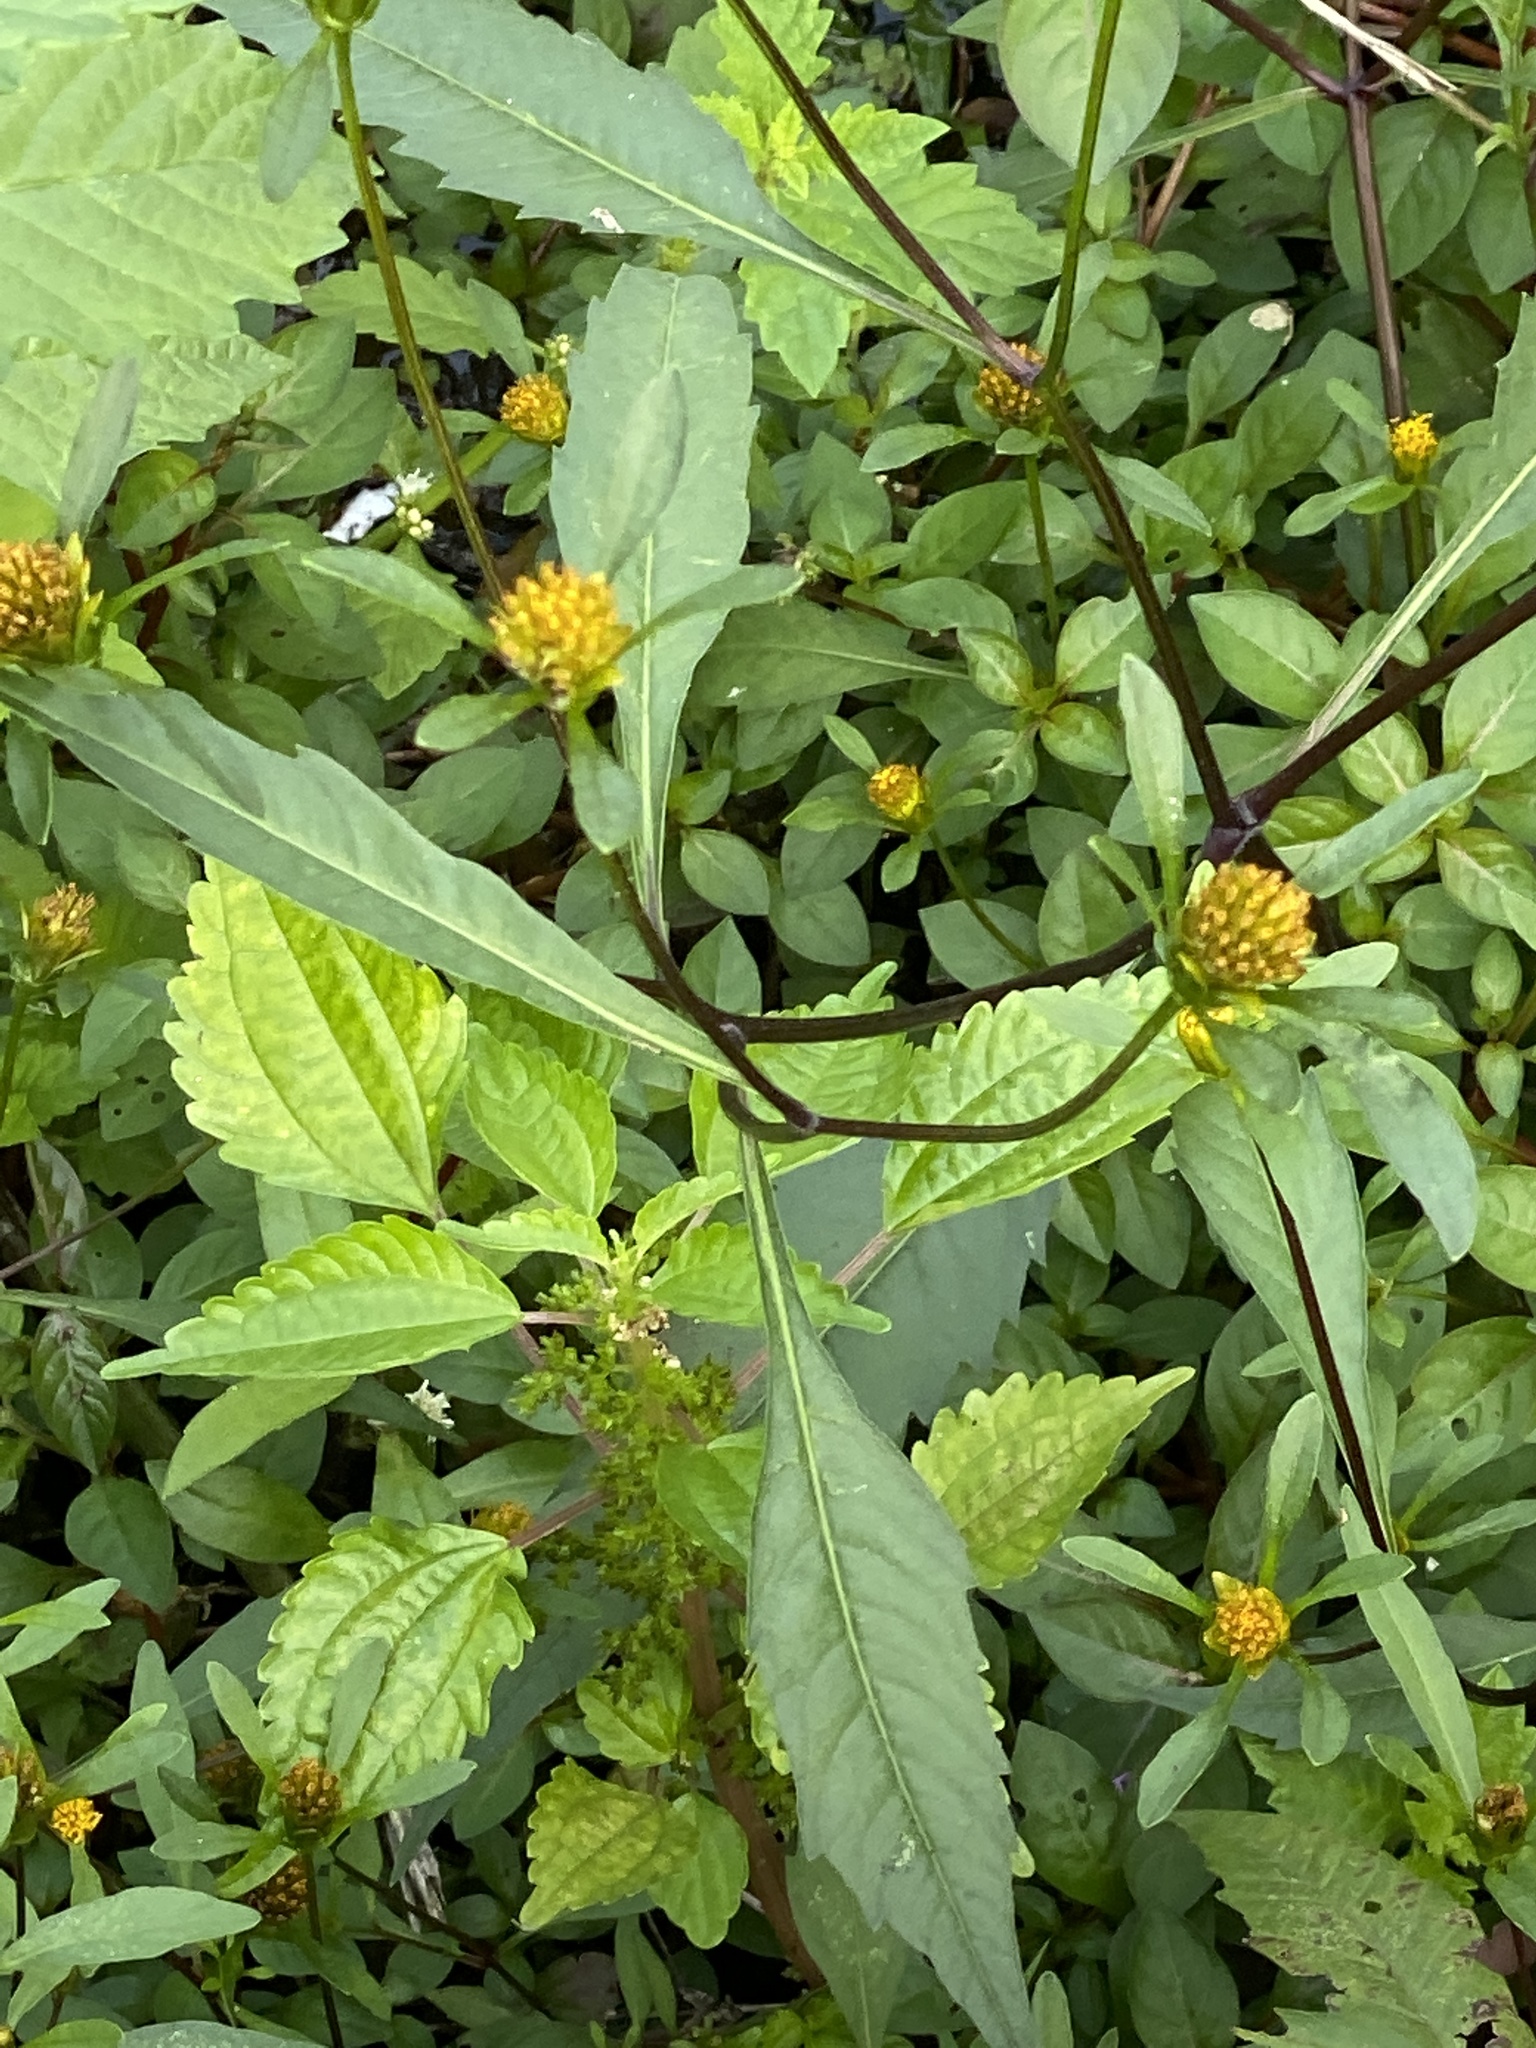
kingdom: Plantae
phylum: Tracheophyta
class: Magnoliopsida
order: Asterales
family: Asteraceae
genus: Bidens
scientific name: Bidens connata
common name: London bur-marigold
